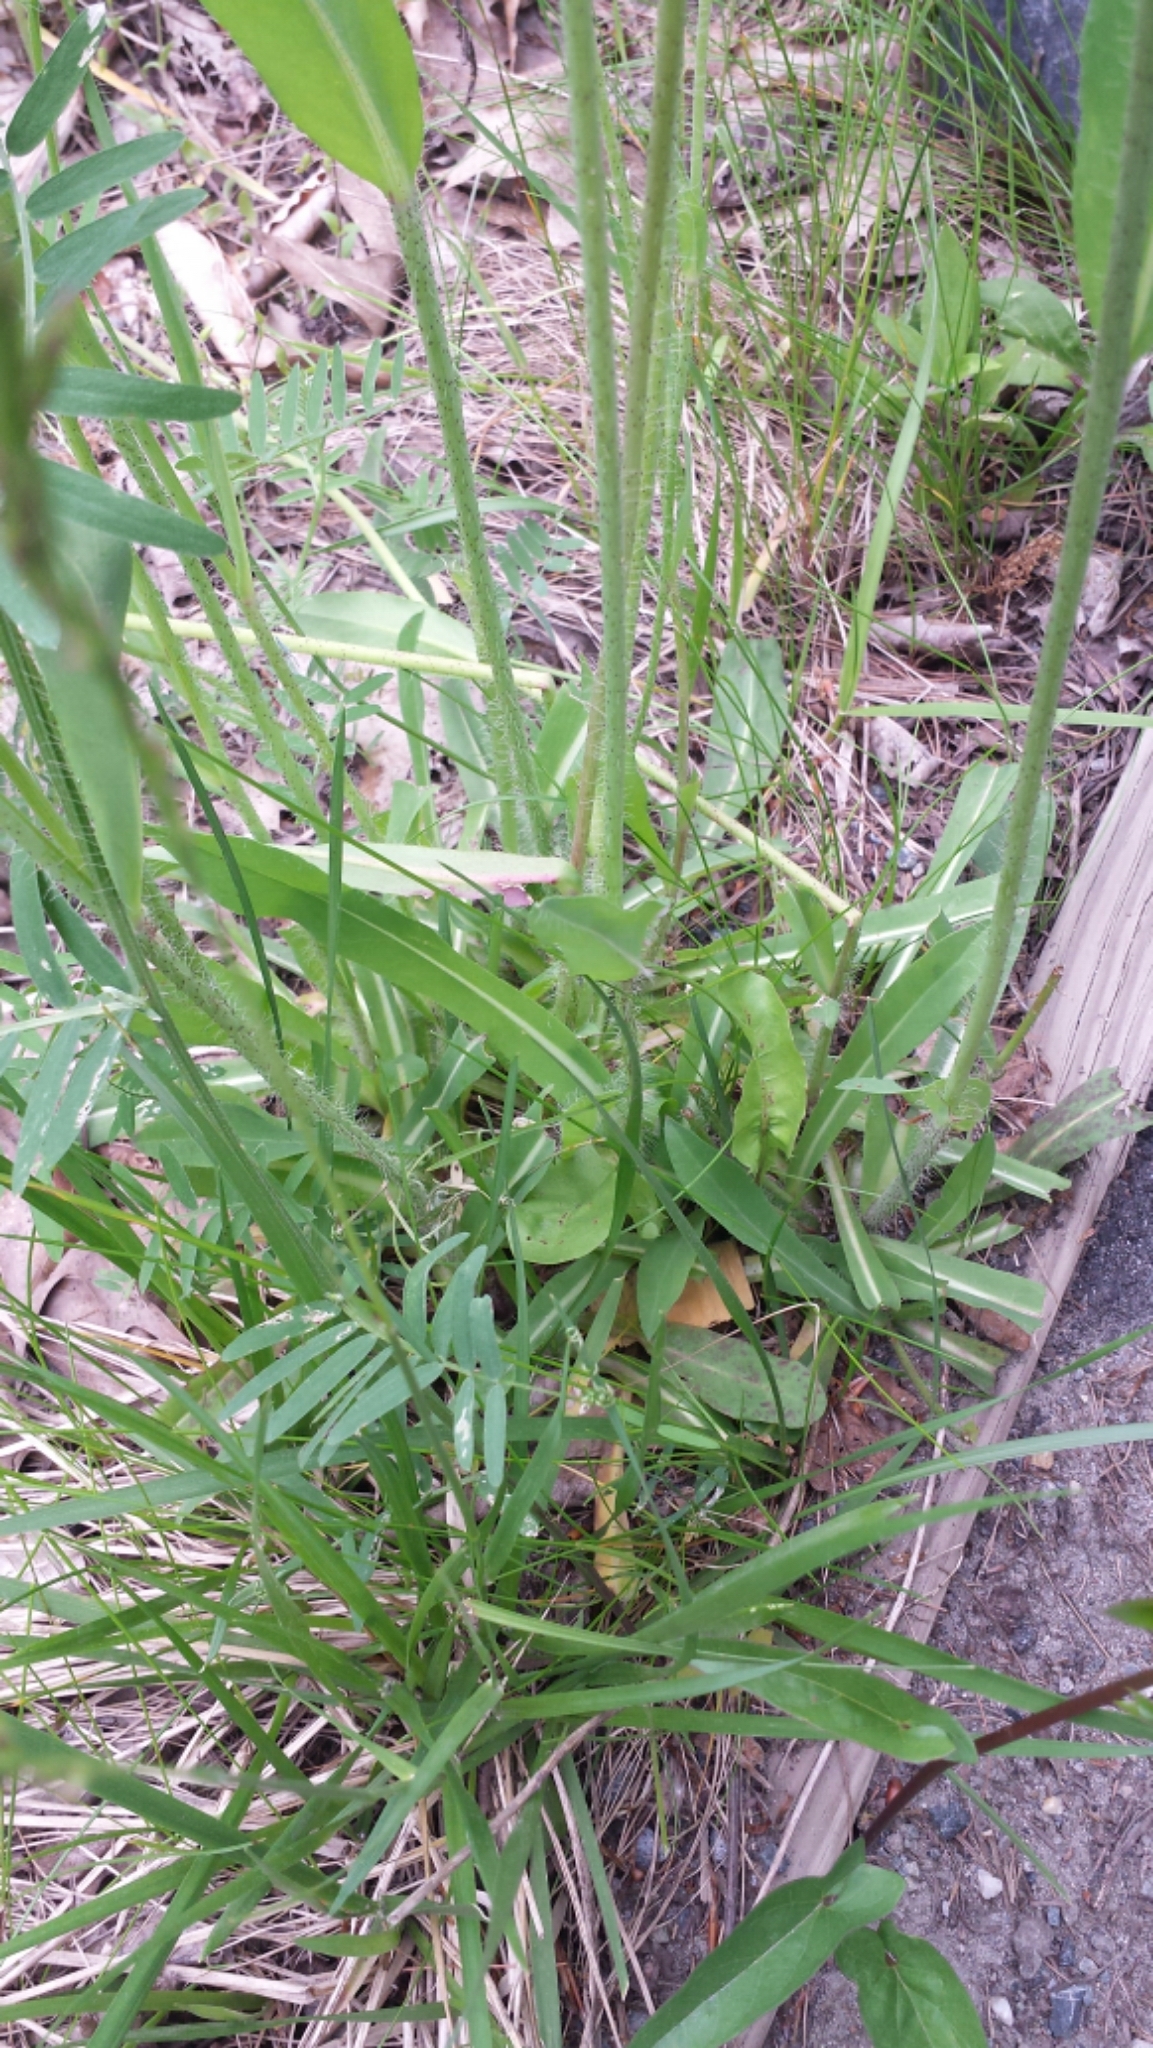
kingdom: Plantae
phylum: Tracheophyta
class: Magnoliopsida
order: Asterales
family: Asteraceae
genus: Pilosella
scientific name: Pilosella caespitosa
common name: Yellow fox-and-cubs
